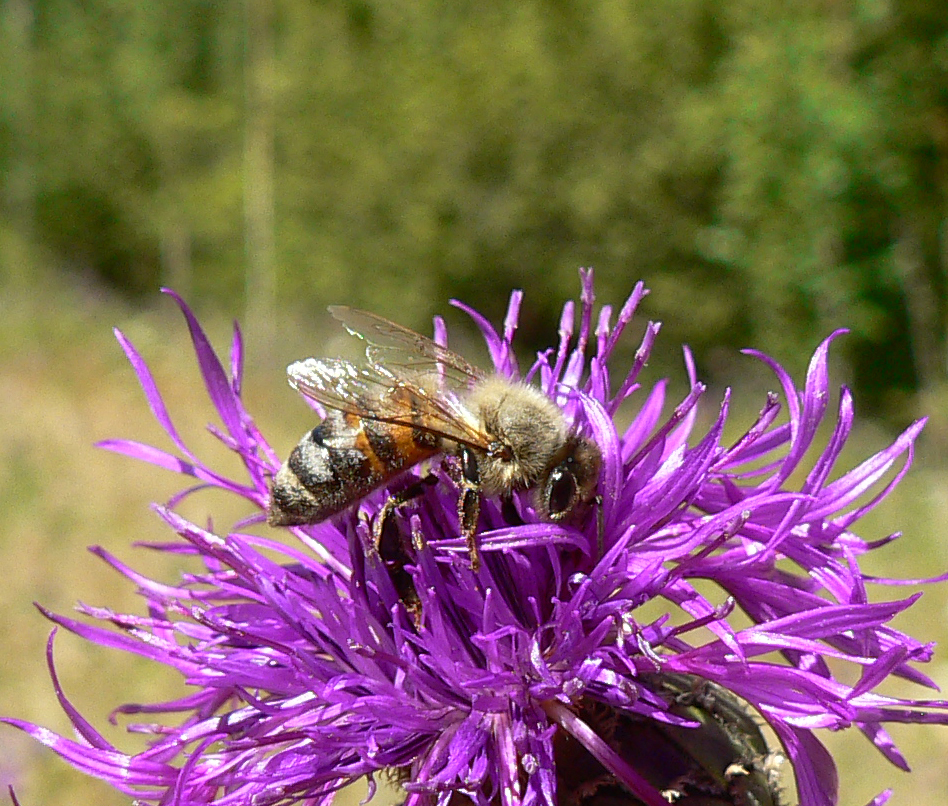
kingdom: Animalia
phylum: Arthropoda
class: Insecta
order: Hymenoptera
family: Apidae
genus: Apis
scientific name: Apis mellifera
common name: Honey bee
